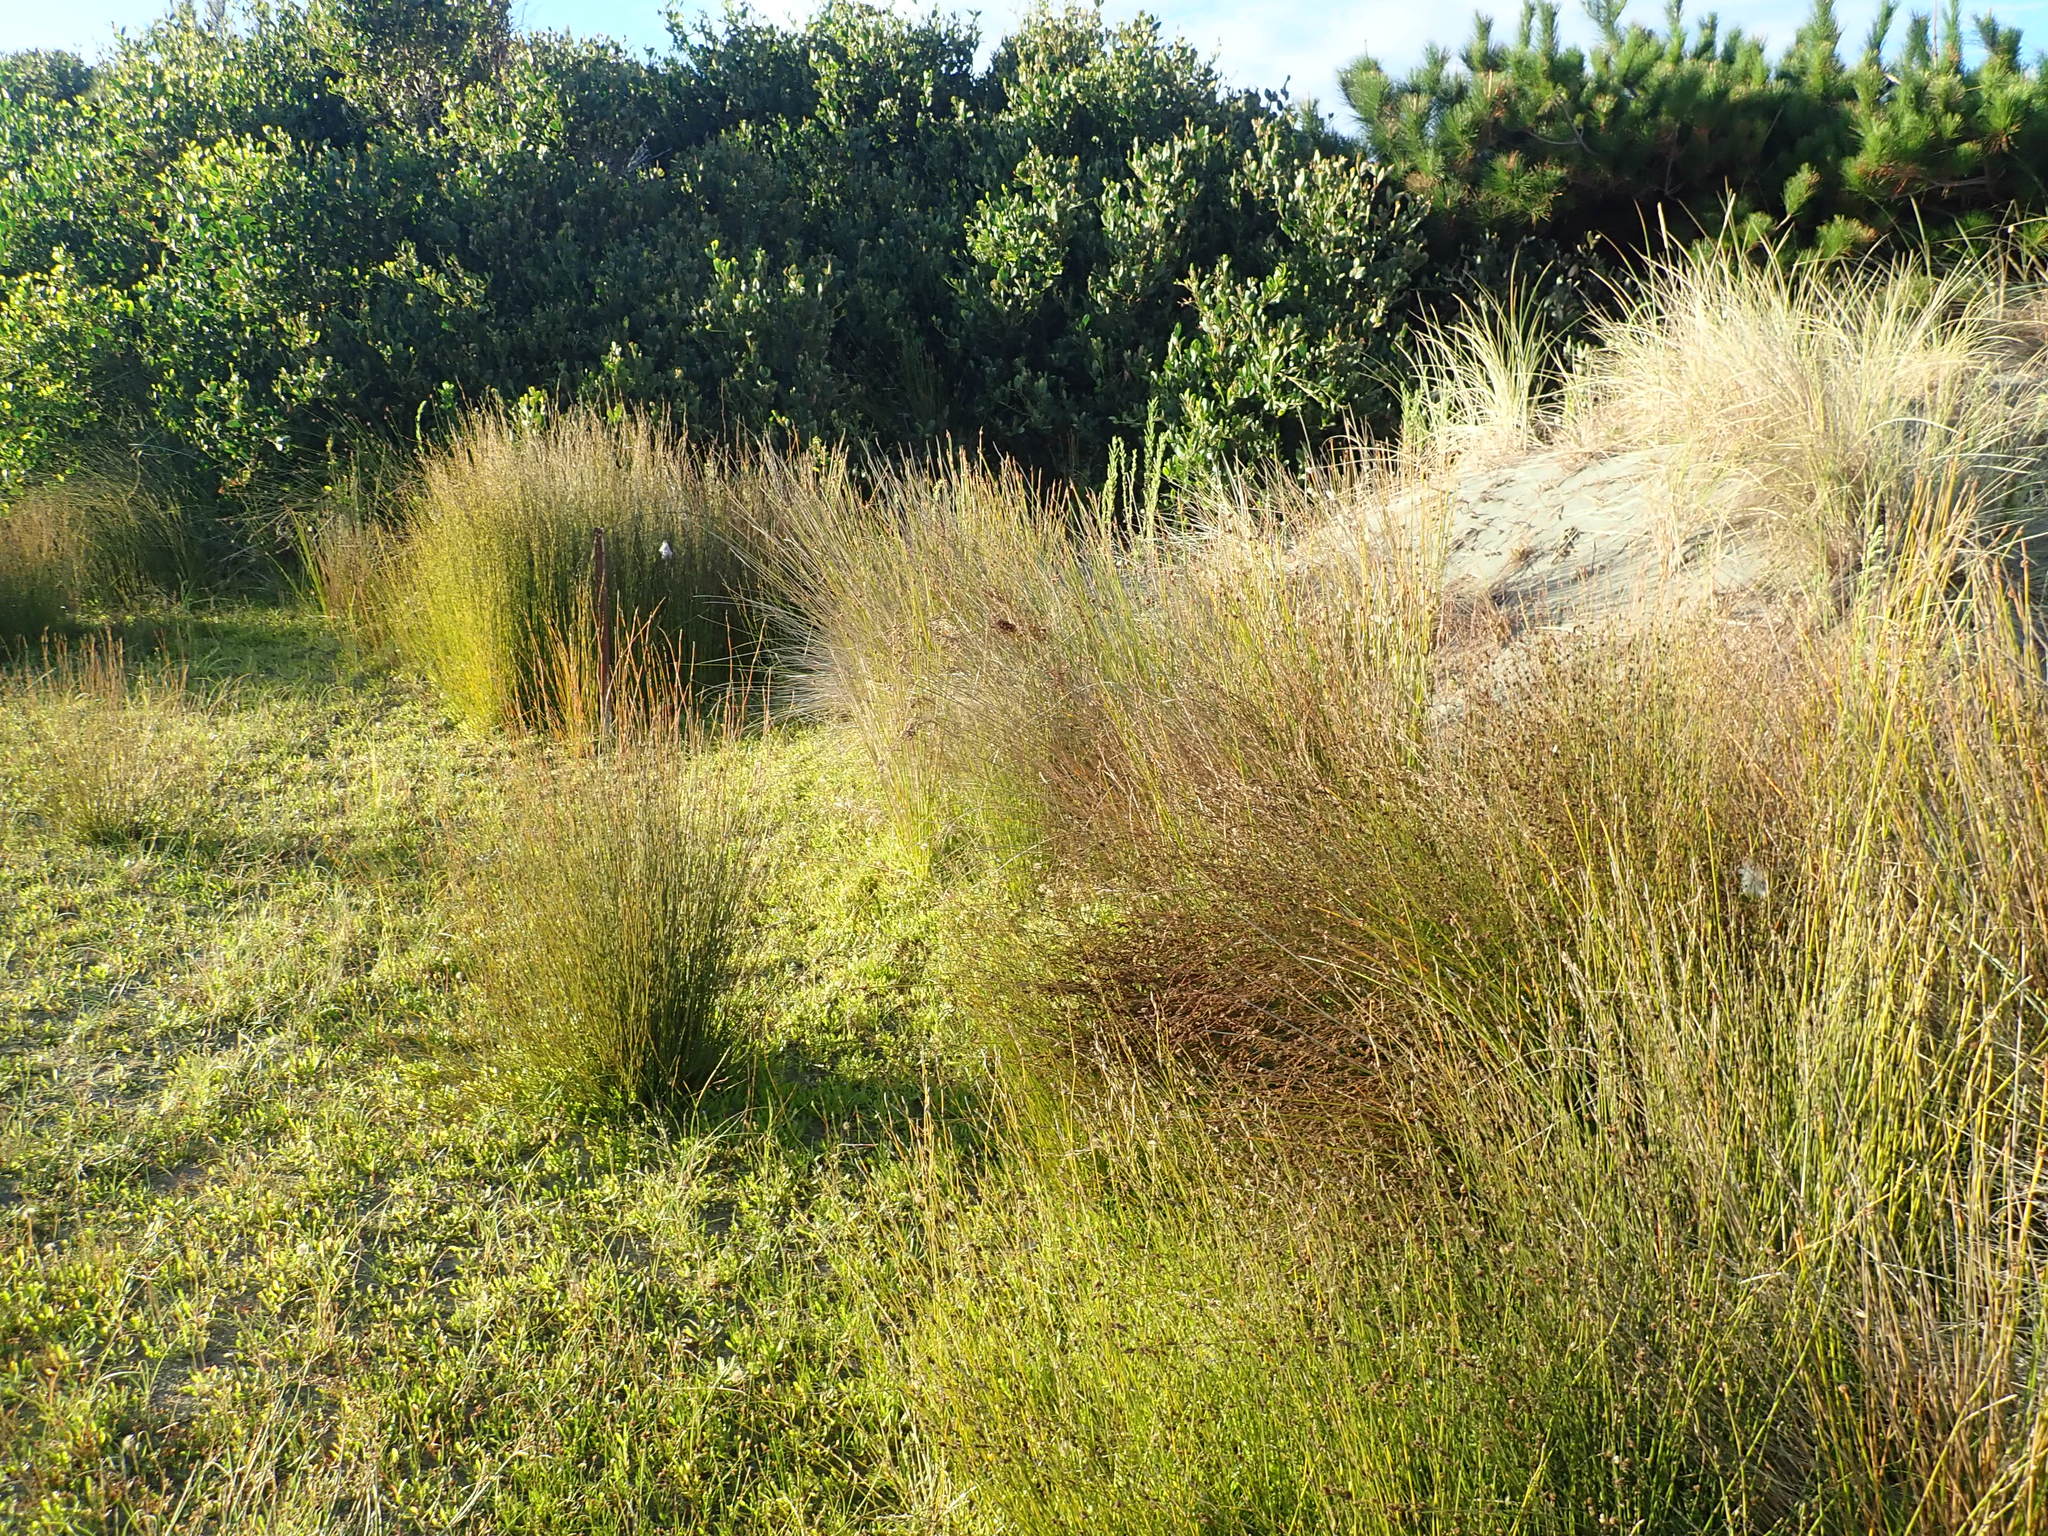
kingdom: Plantae
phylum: Tracheophyta
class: Liliopsida
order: Poales
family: Restionaceae
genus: Apodasmia
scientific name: Apodasmia similis
